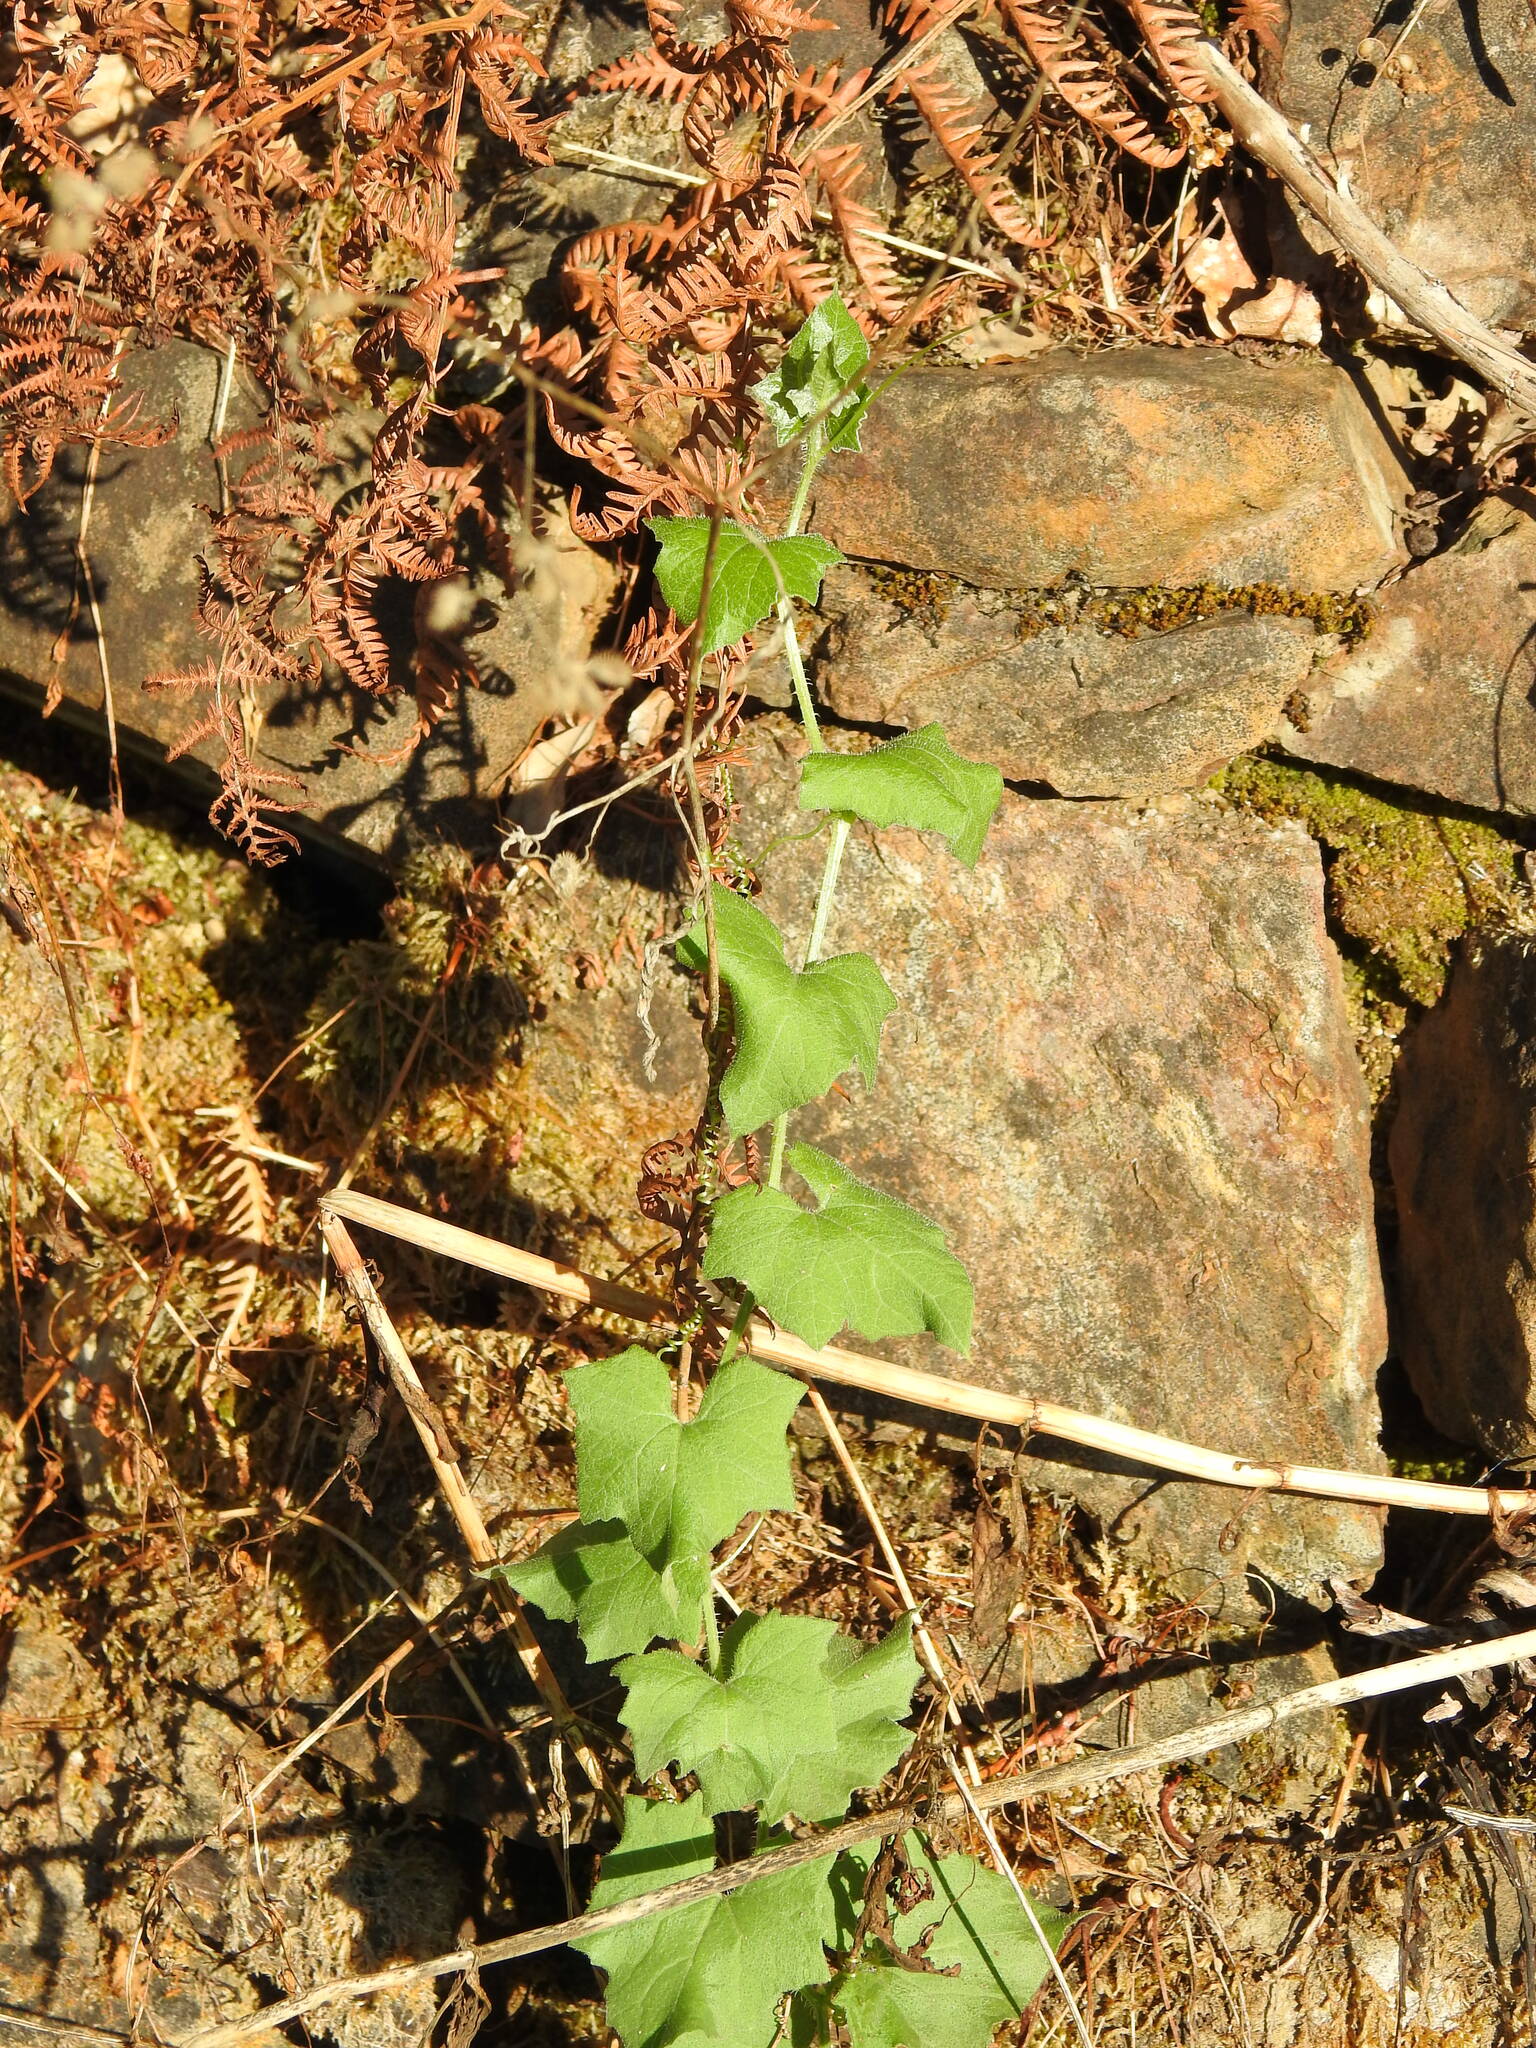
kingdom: Plantae
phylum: Tracheophyta
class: Magnoliopsida
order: Cucurbitales
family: Cucurbitaceae
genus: Bryonia
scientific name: Bryonia cretica
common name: Cretan bryony
